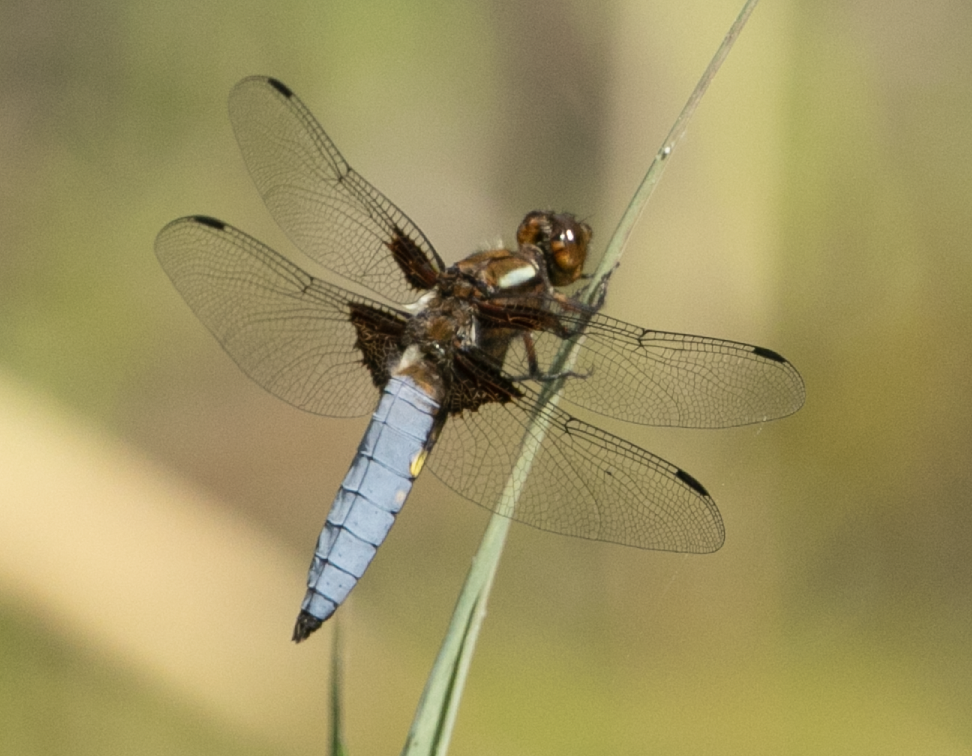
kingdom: Animalia
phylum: Arthropoda
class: Insecta
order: Odonata
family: Libellulidae
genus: Libellula
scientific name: Libellula depressa
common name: Broad-bodied chaser
